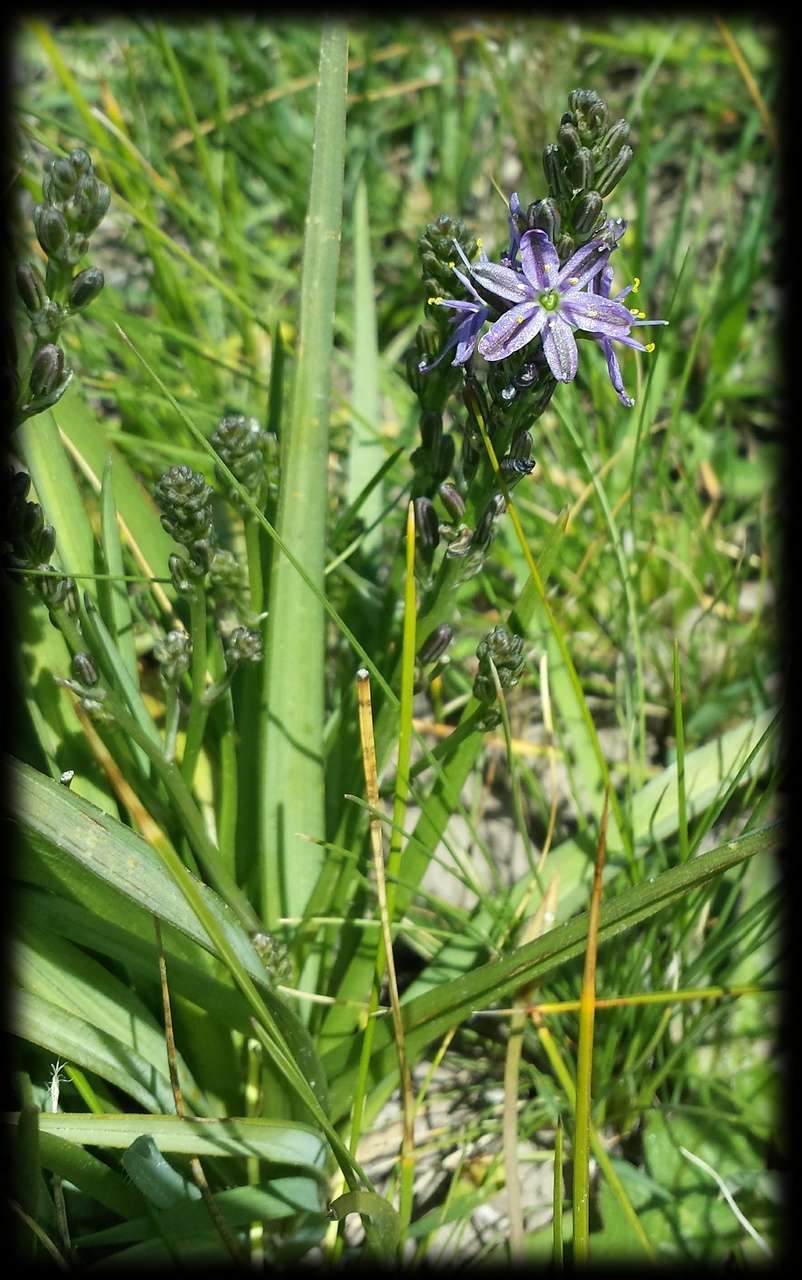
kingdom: Plantae
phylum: Tracheophyta
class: Liliopsida
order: Asparagales
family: Asphodelaceae
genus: Caesia
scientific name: Caesia calliantha
